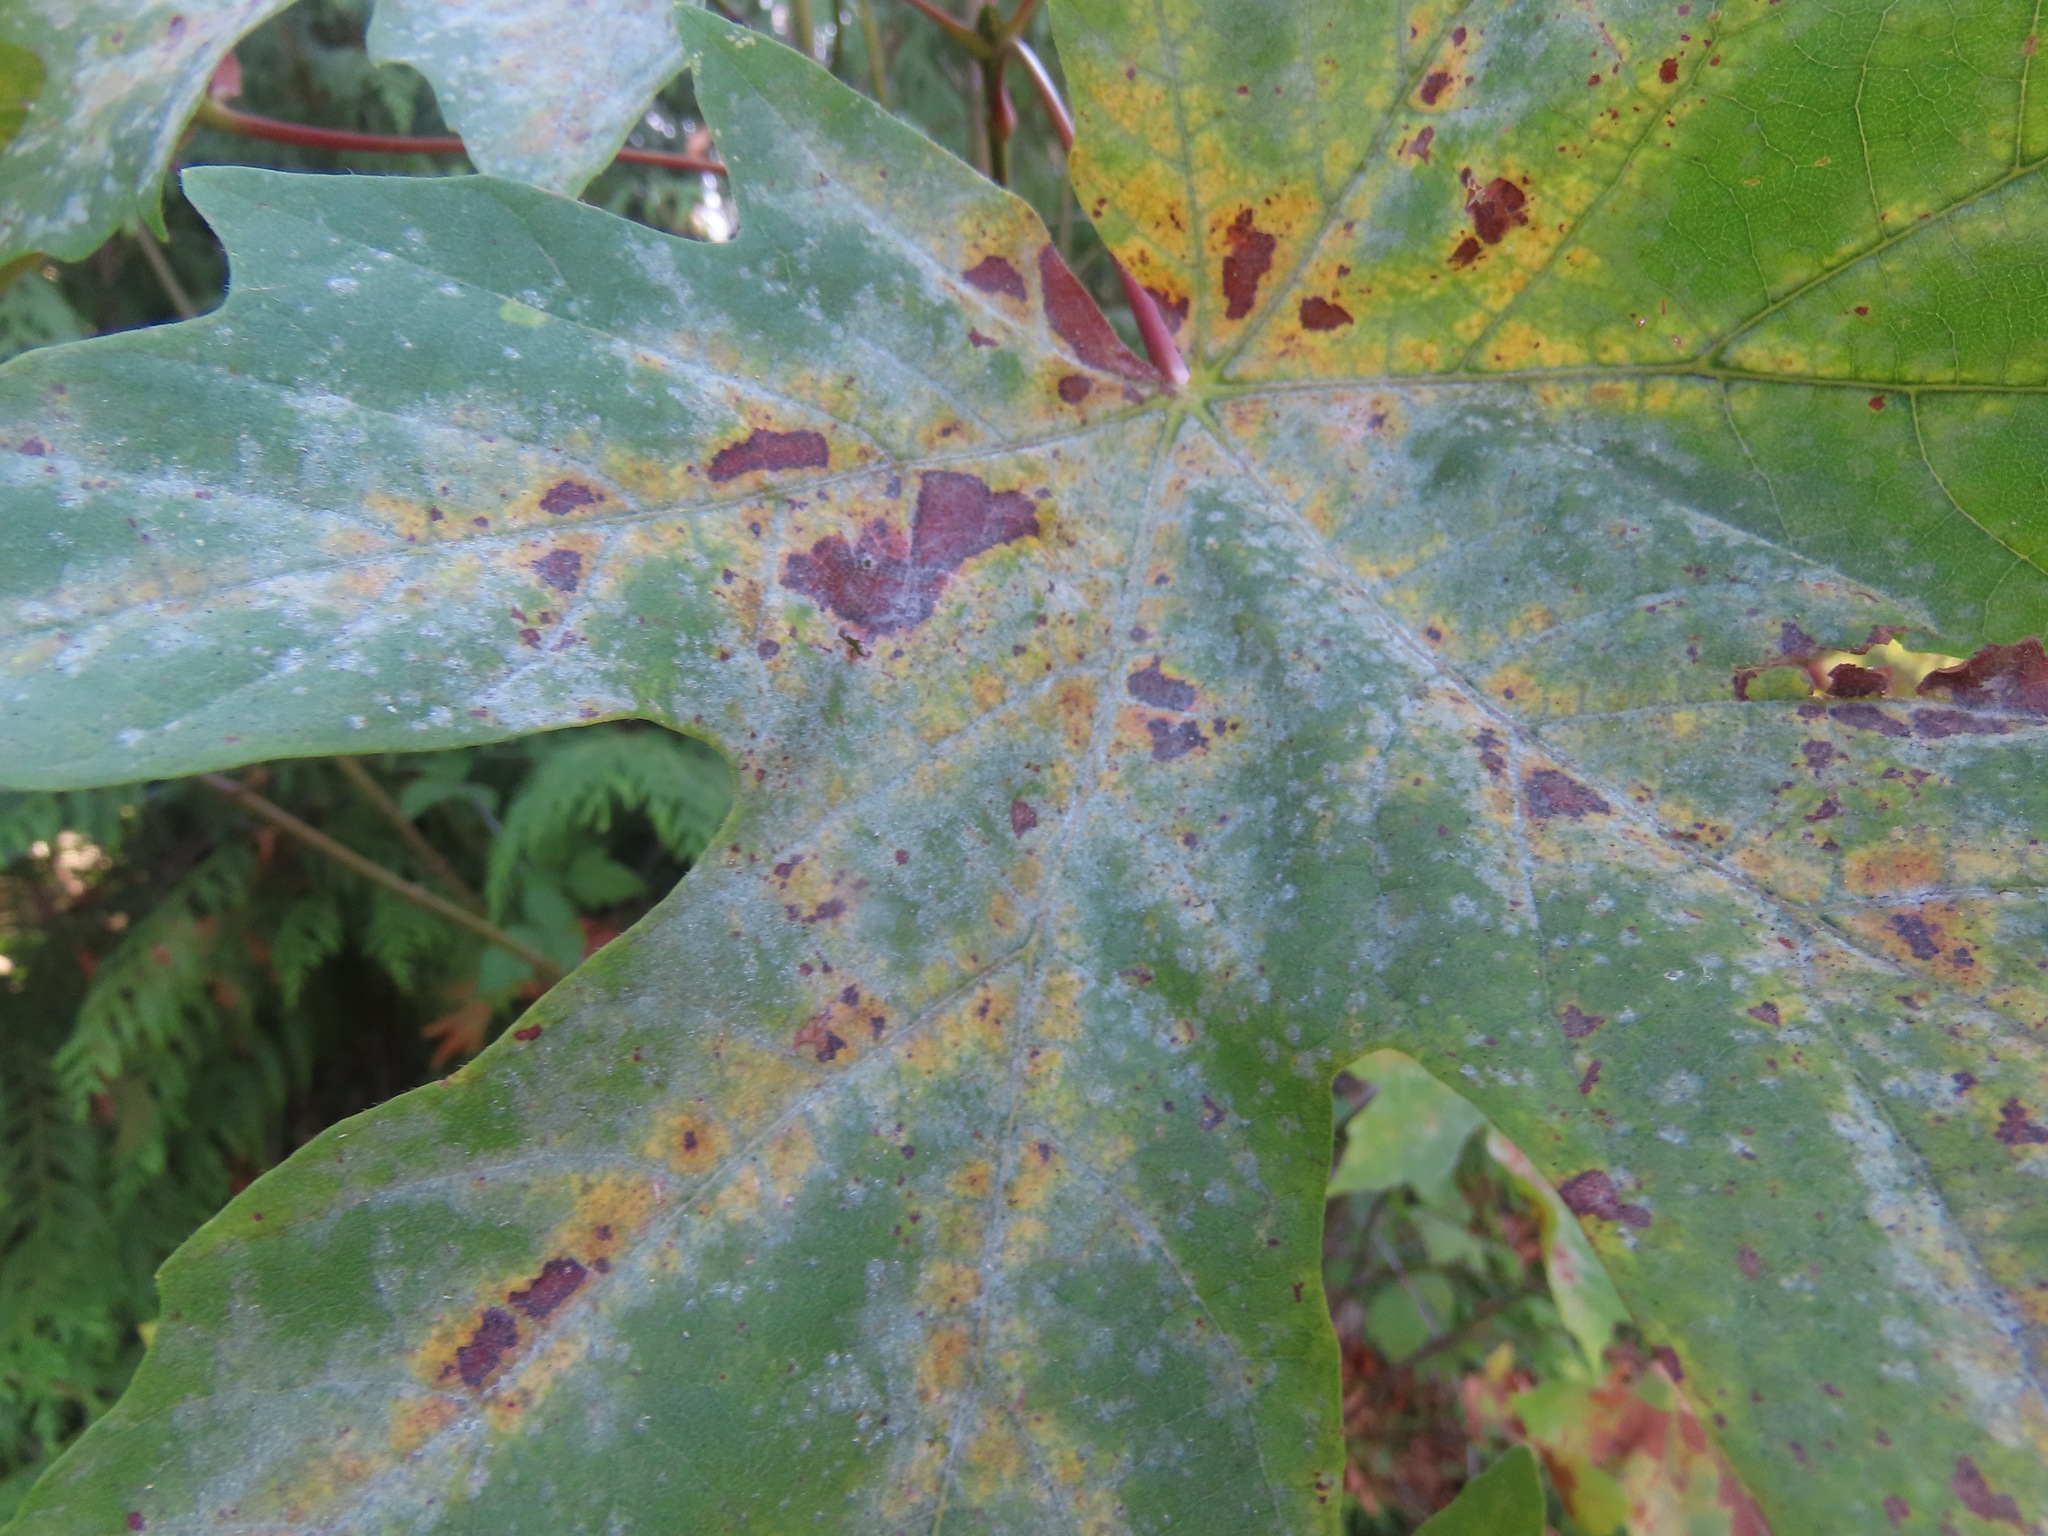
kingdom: Plantae
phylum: Tracheophyta
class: Magnoliopsida
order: Sapindales
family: Sapindaceae
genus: Acer
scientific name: Acer macrophyllum
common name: Oregon maple
